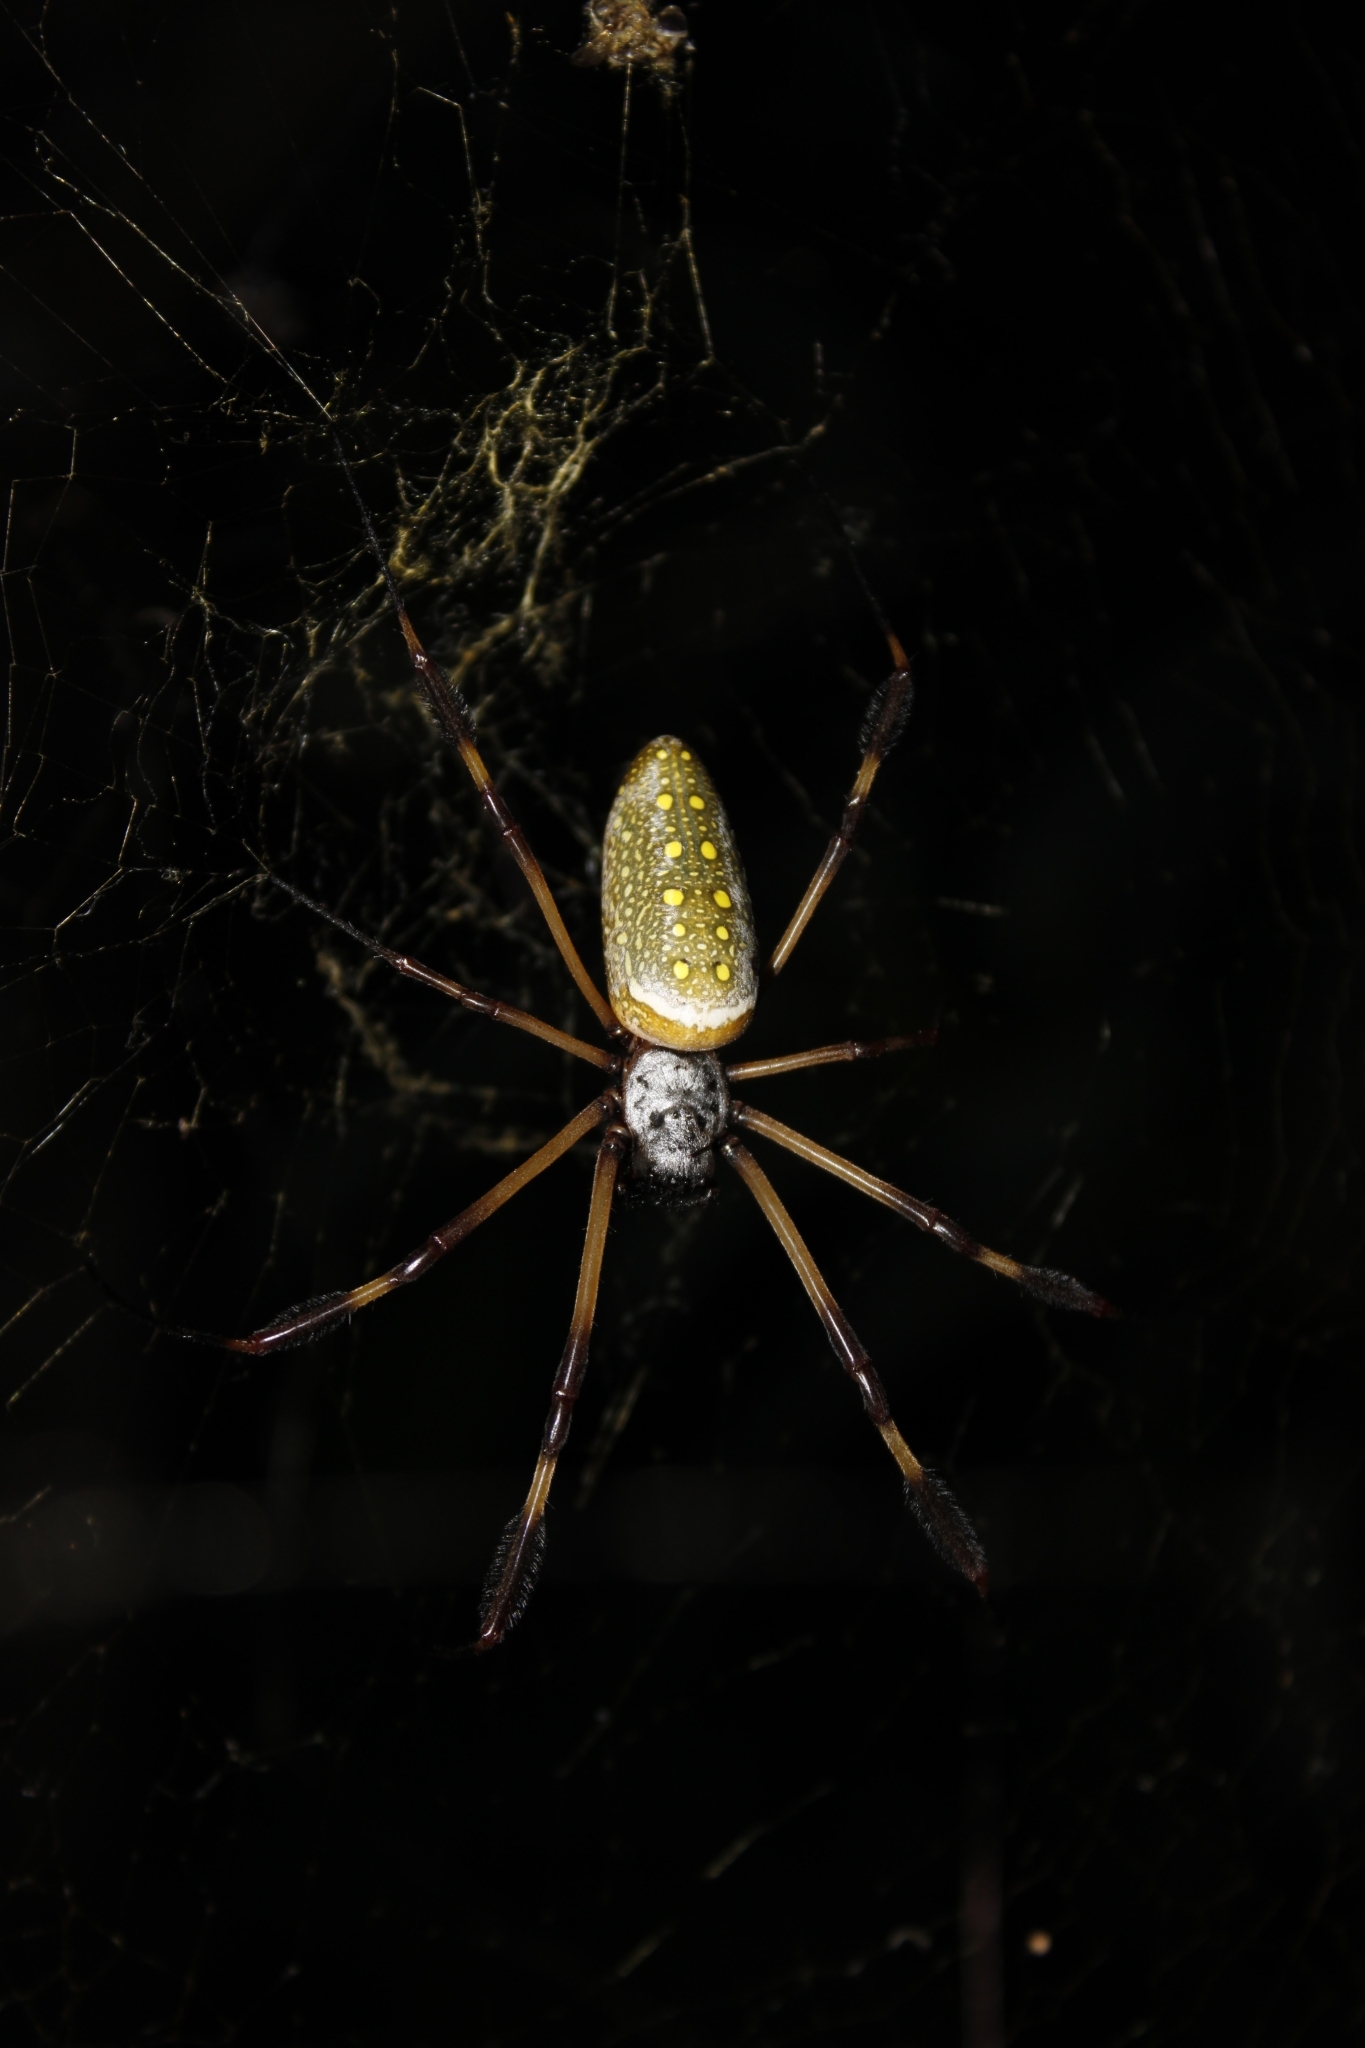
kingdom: Animalia
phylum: Arthropoda
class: Arachnida
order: Araneae
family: Araneidae
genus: Trichonephila
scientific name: Trichonephila clavipes
